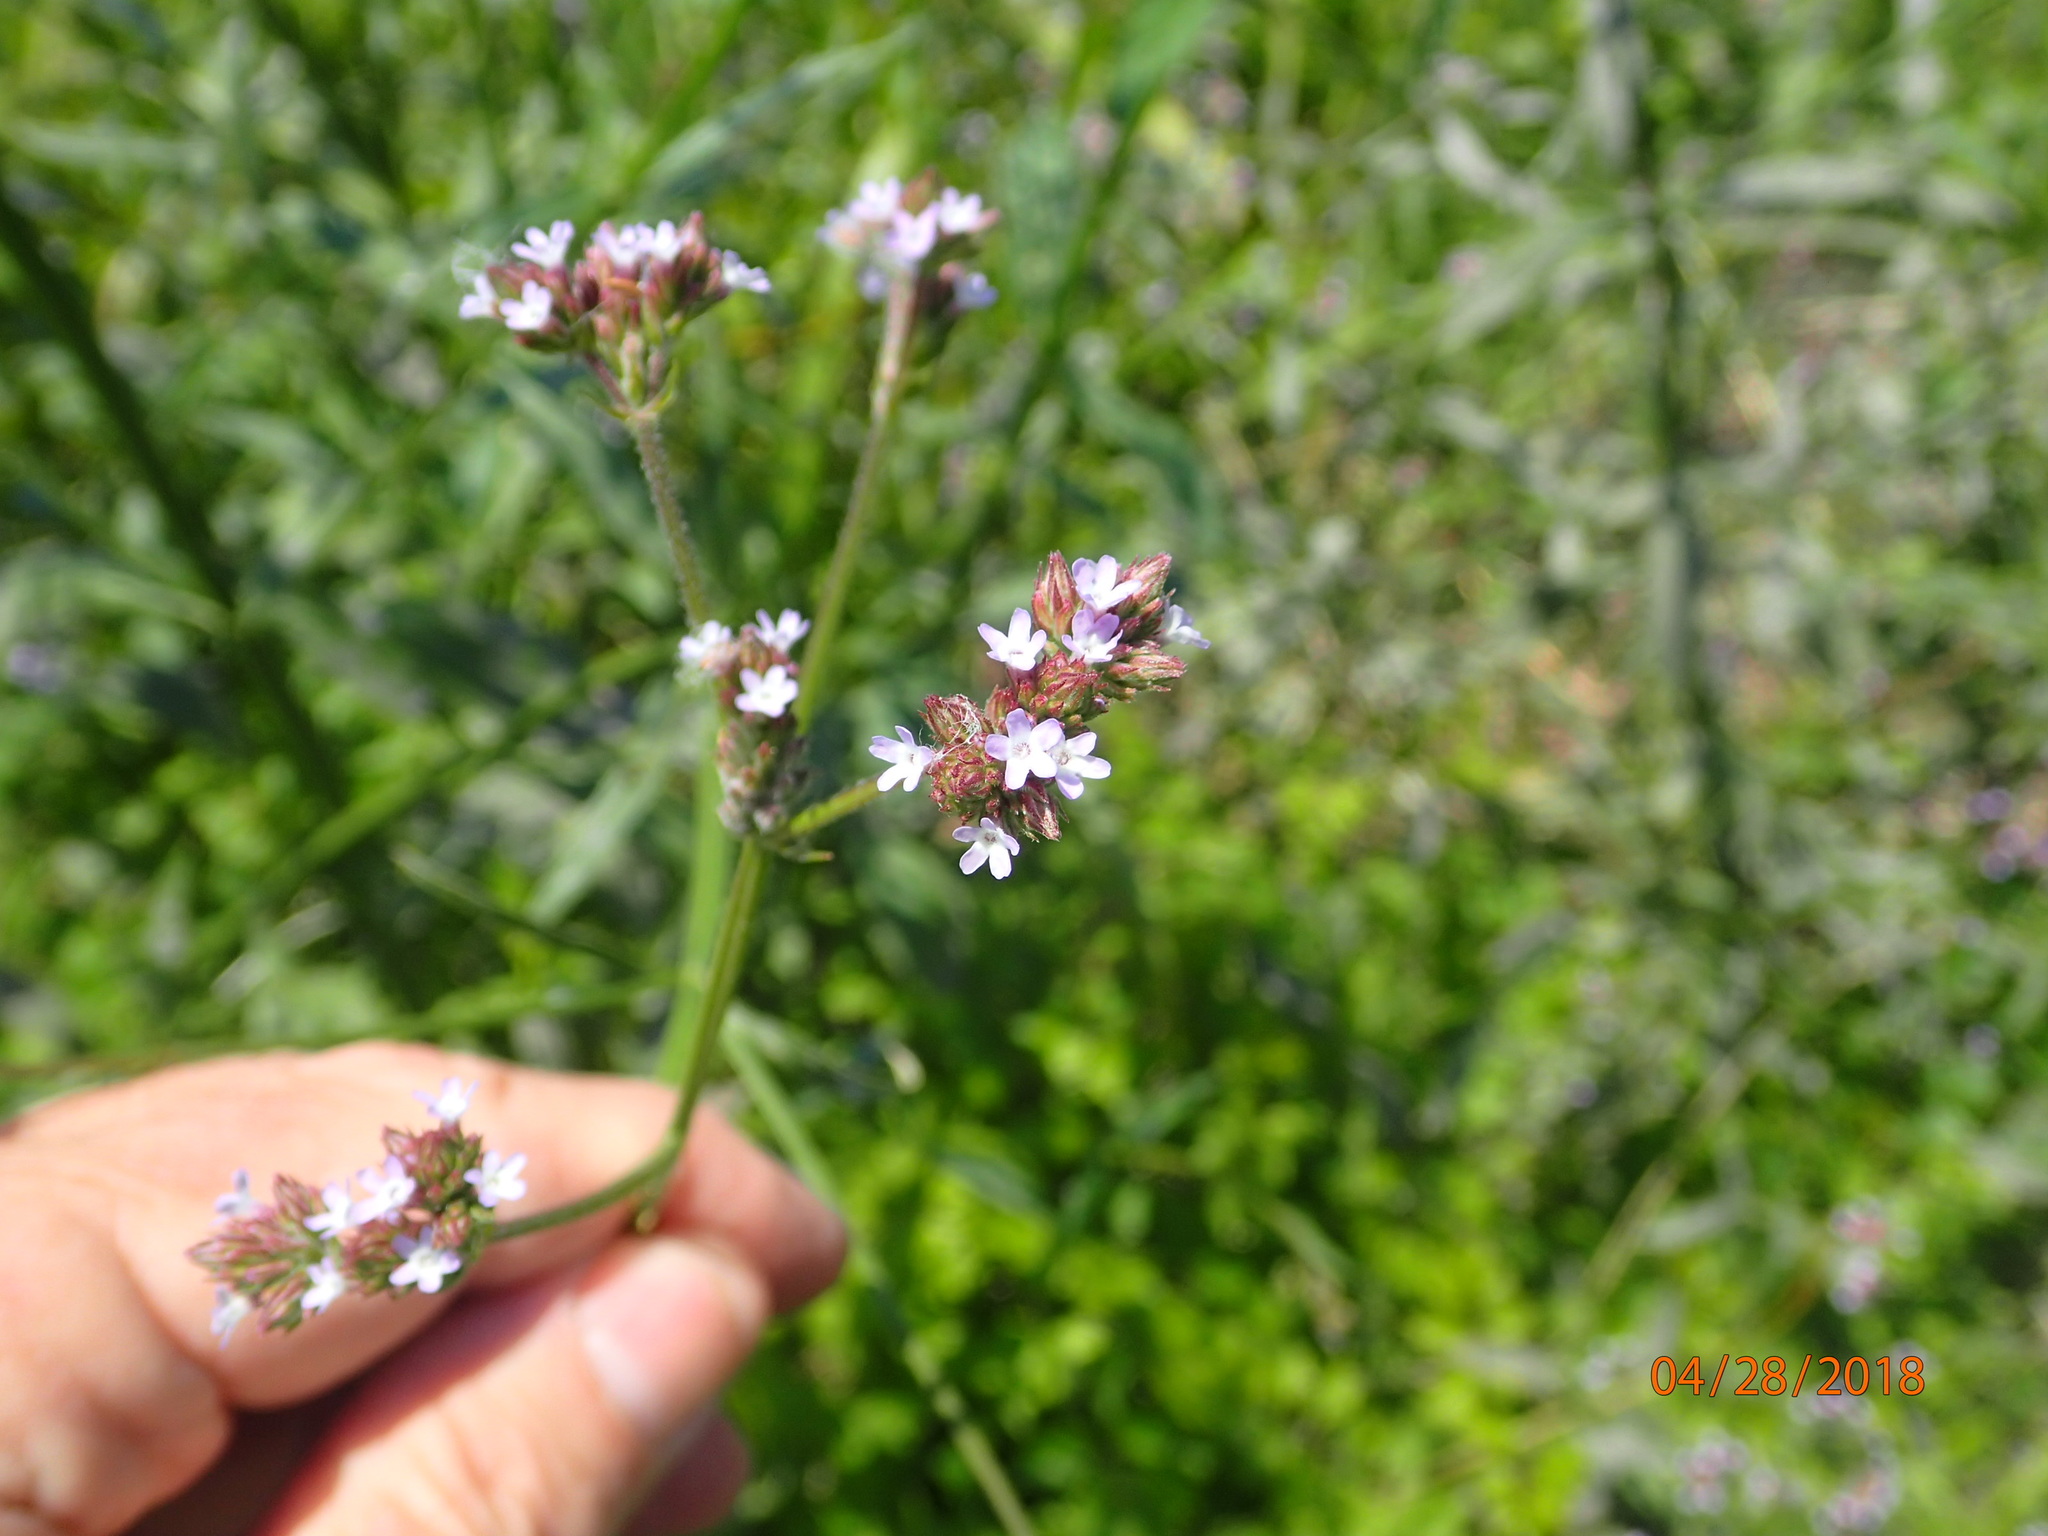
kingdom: Plantae
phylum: Tracheophyta
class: Magnoliopsida
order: Lamiales
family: Verbenaceae
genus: Verbena
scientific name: Verbena brasiliensis
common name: Brazilian vervain
